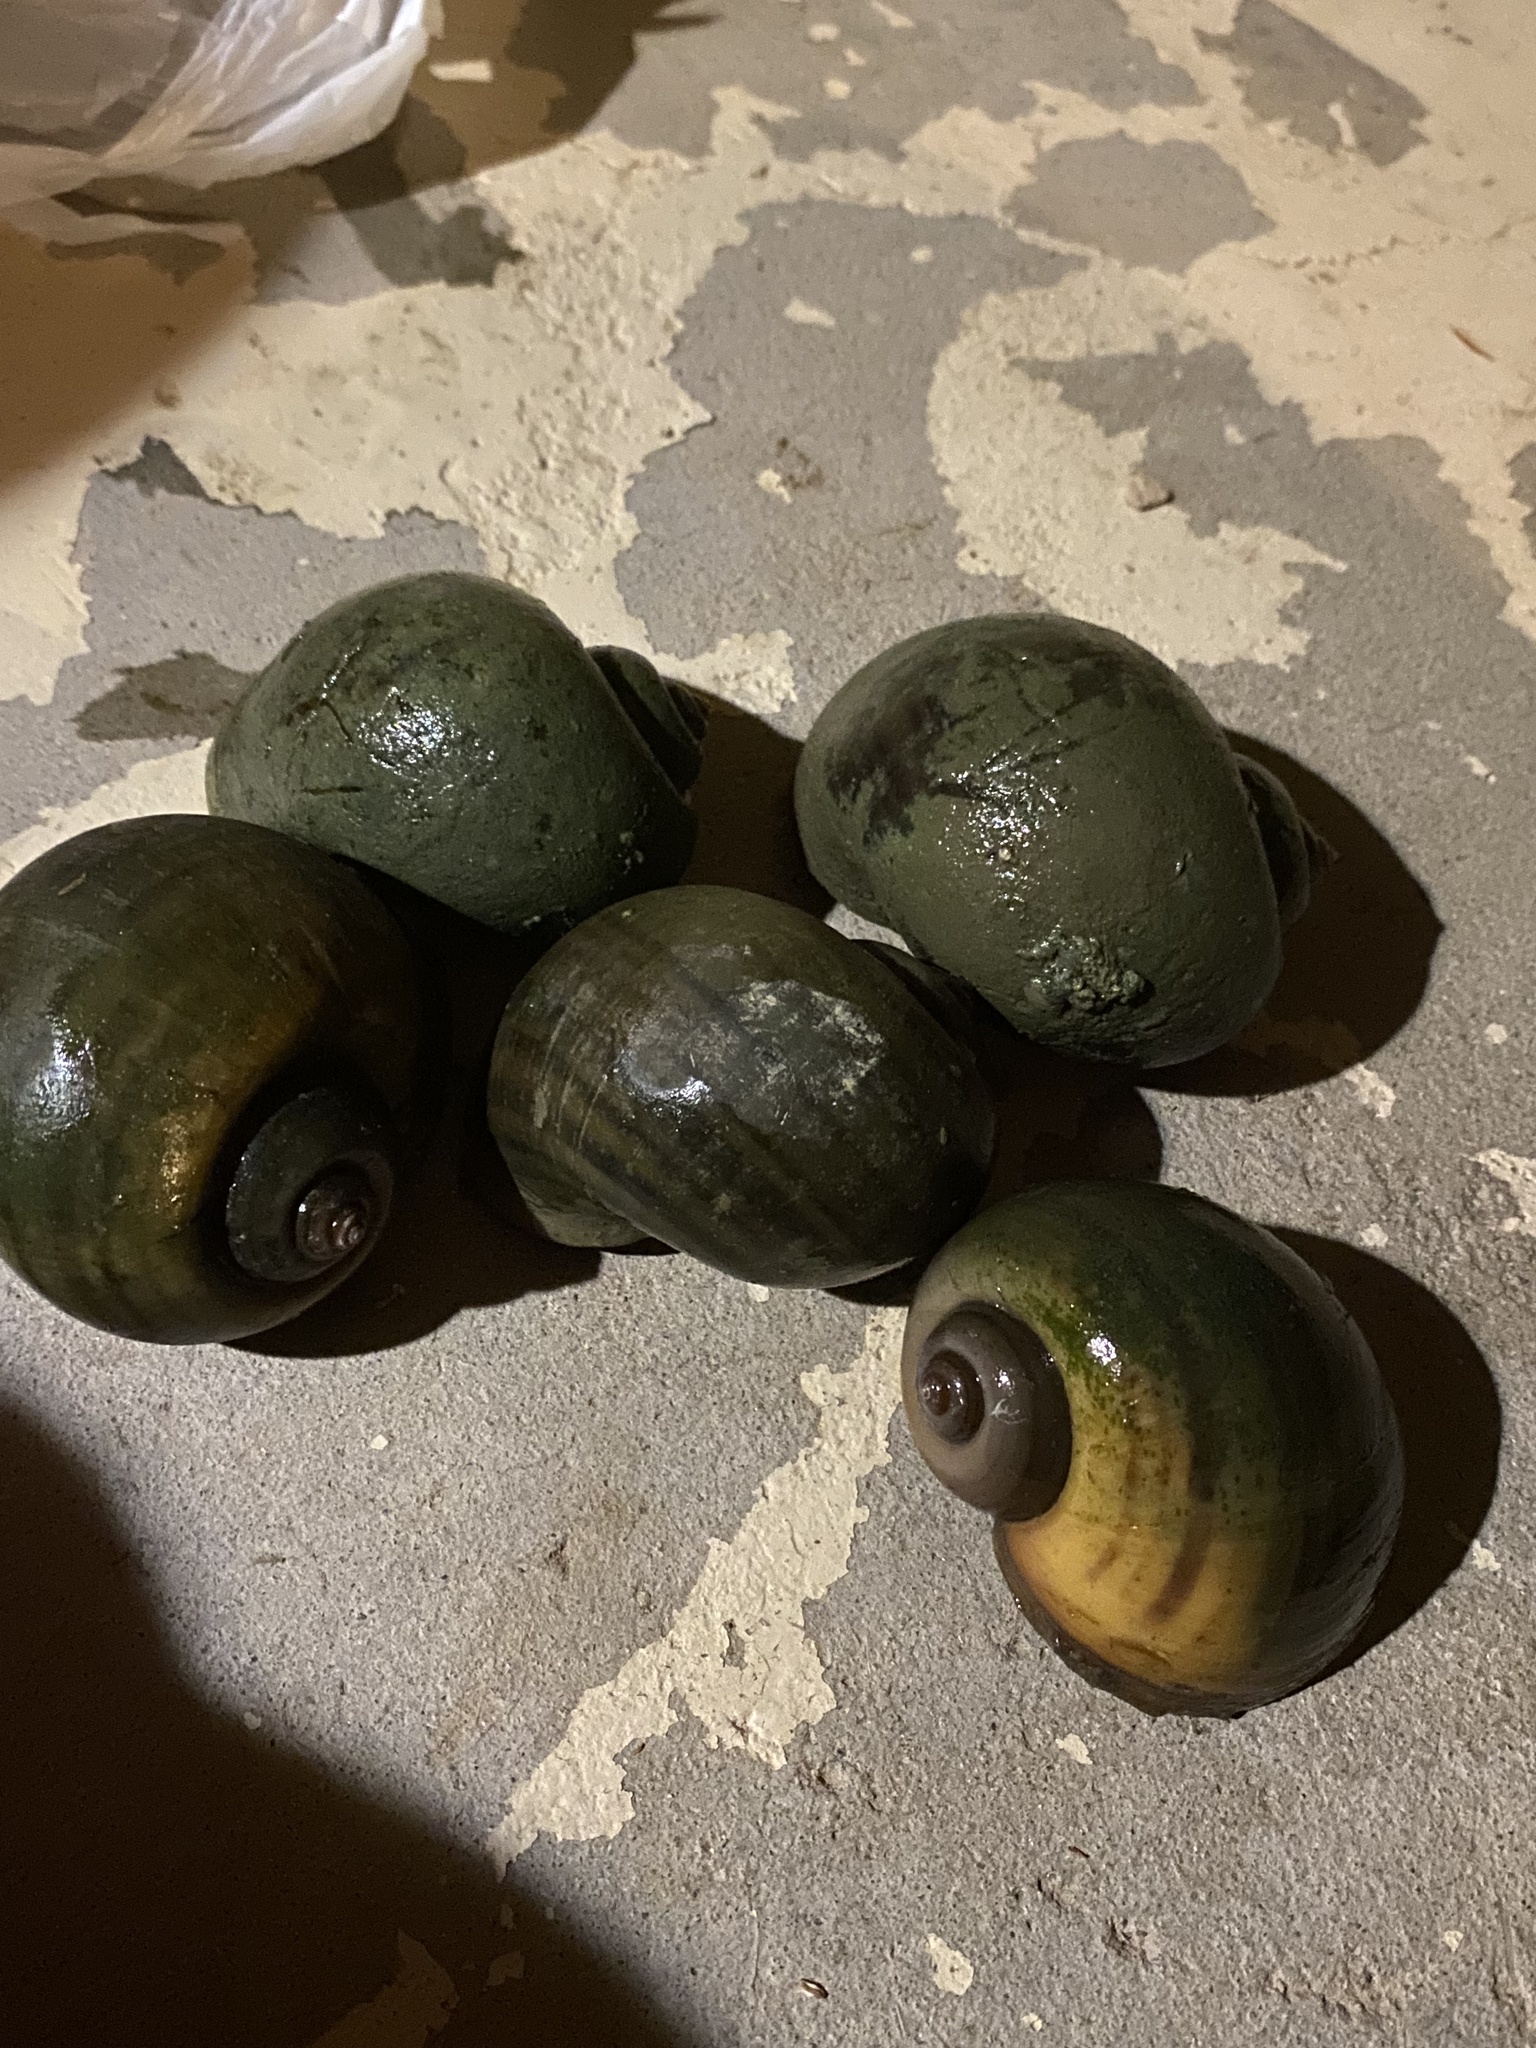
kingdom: Animalia
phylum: Mollusca
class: Gastropoda
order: Architaenioglossa
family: Ampullariidae
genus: Pomacea
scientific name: Pomacea maculata
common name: Giant applesnail
